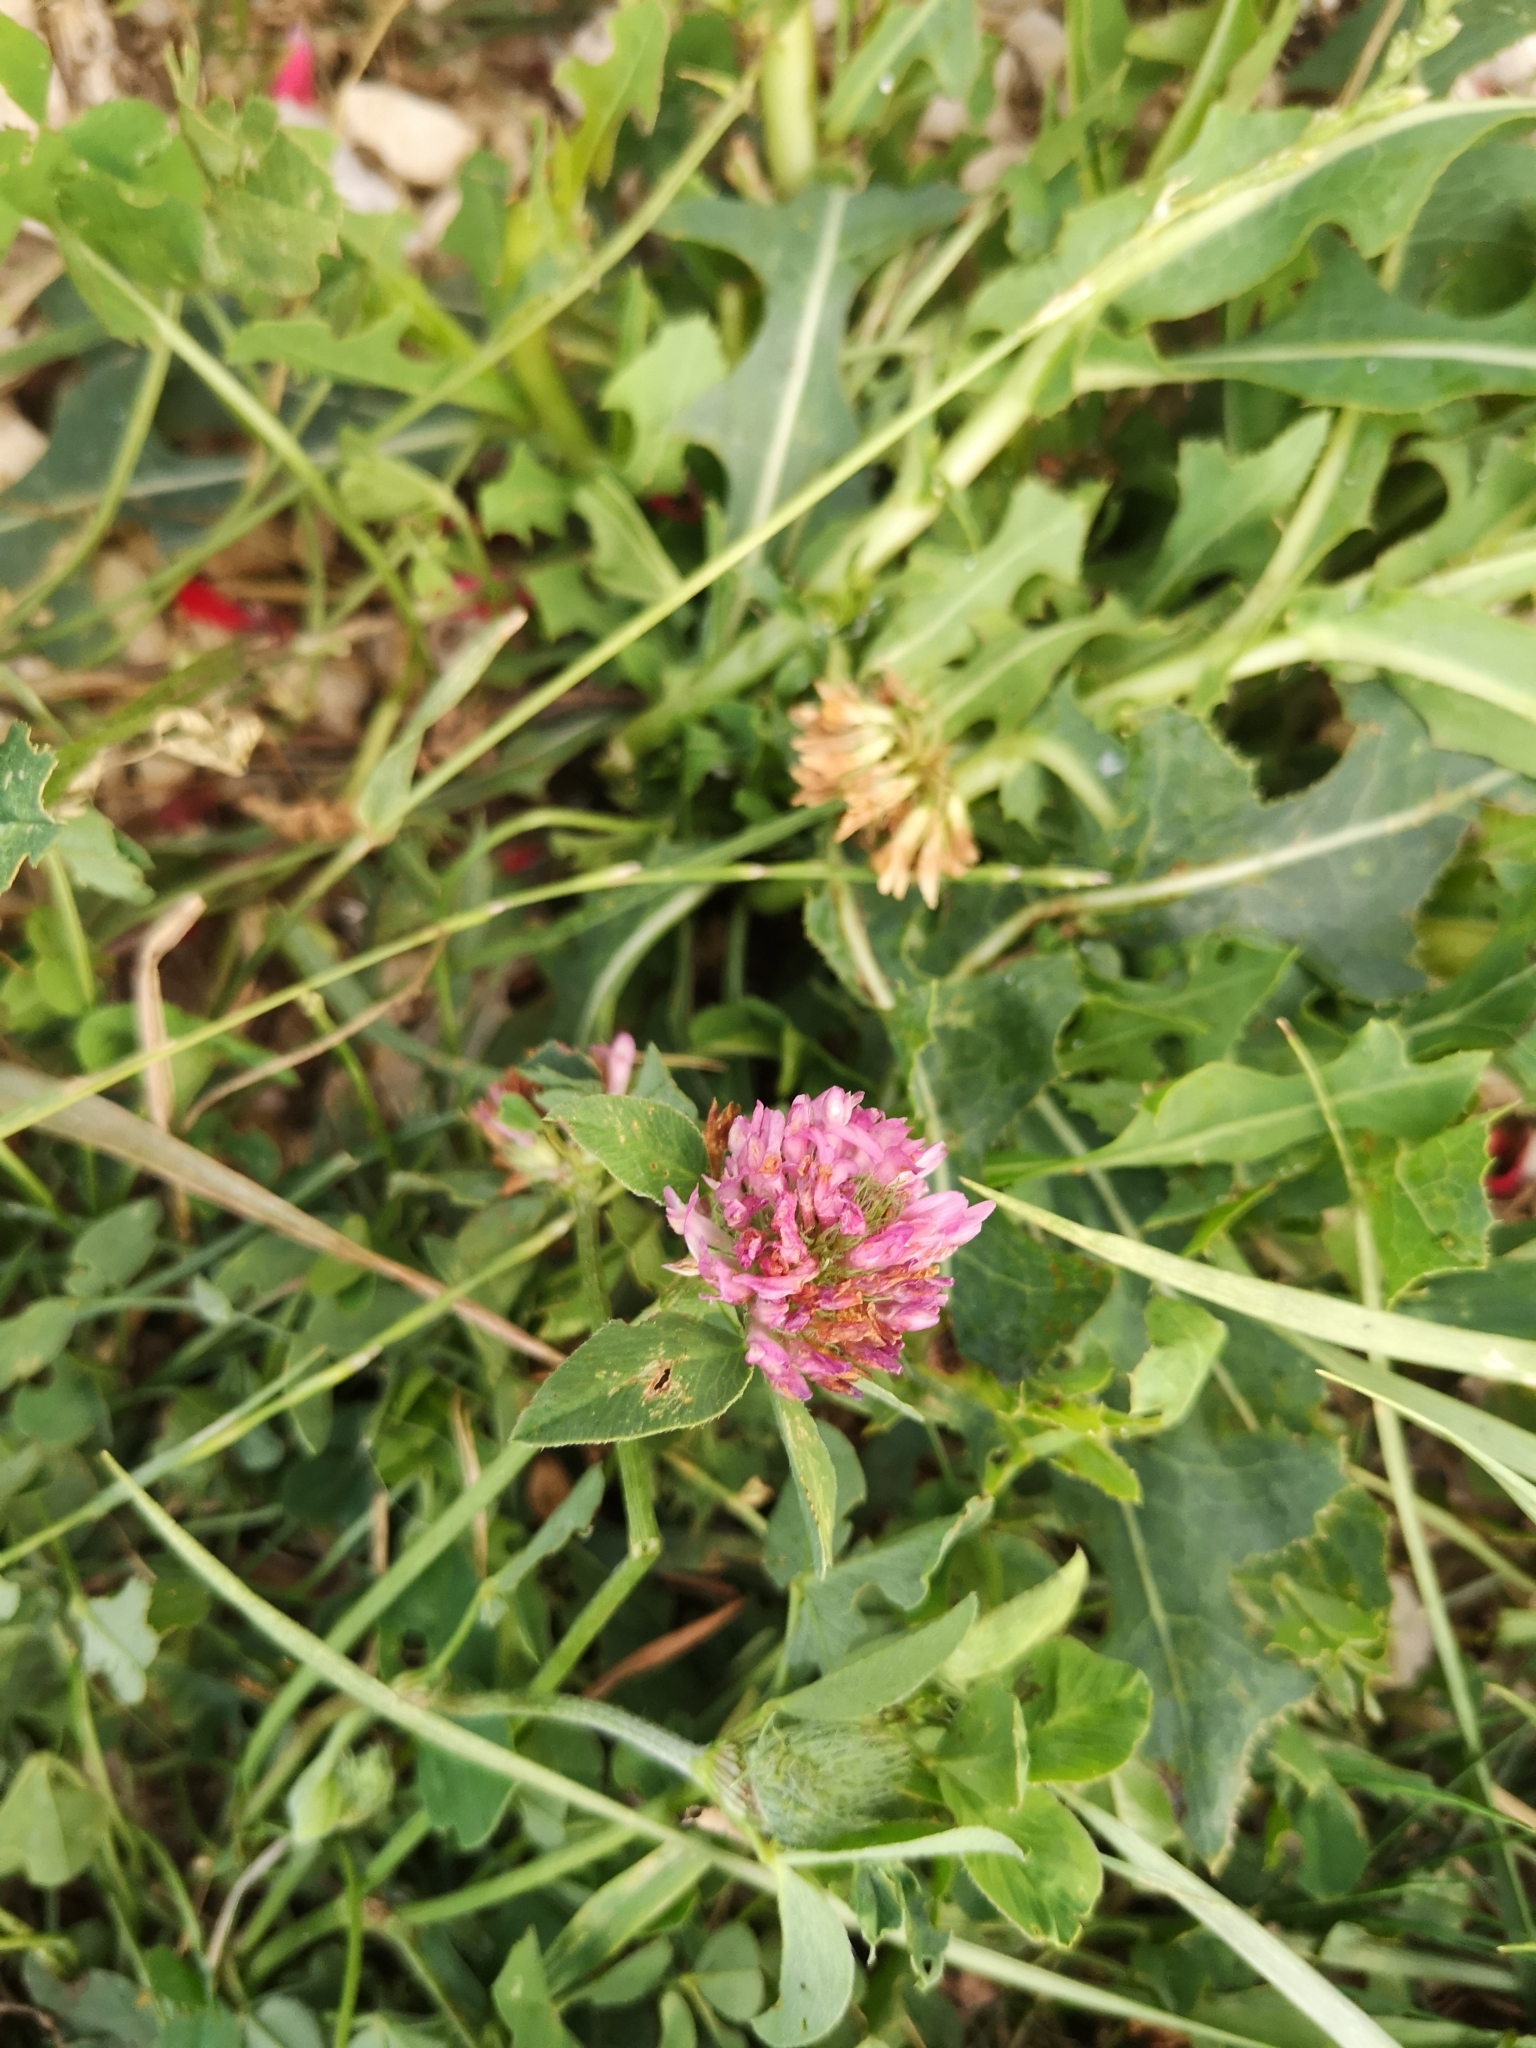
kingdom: Plantae
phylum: Tracheophyta
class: Magnoliopsida
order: Fabales
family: Fabaceae
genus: Trifolium
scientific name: Trifolium pratense
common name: Red clover
